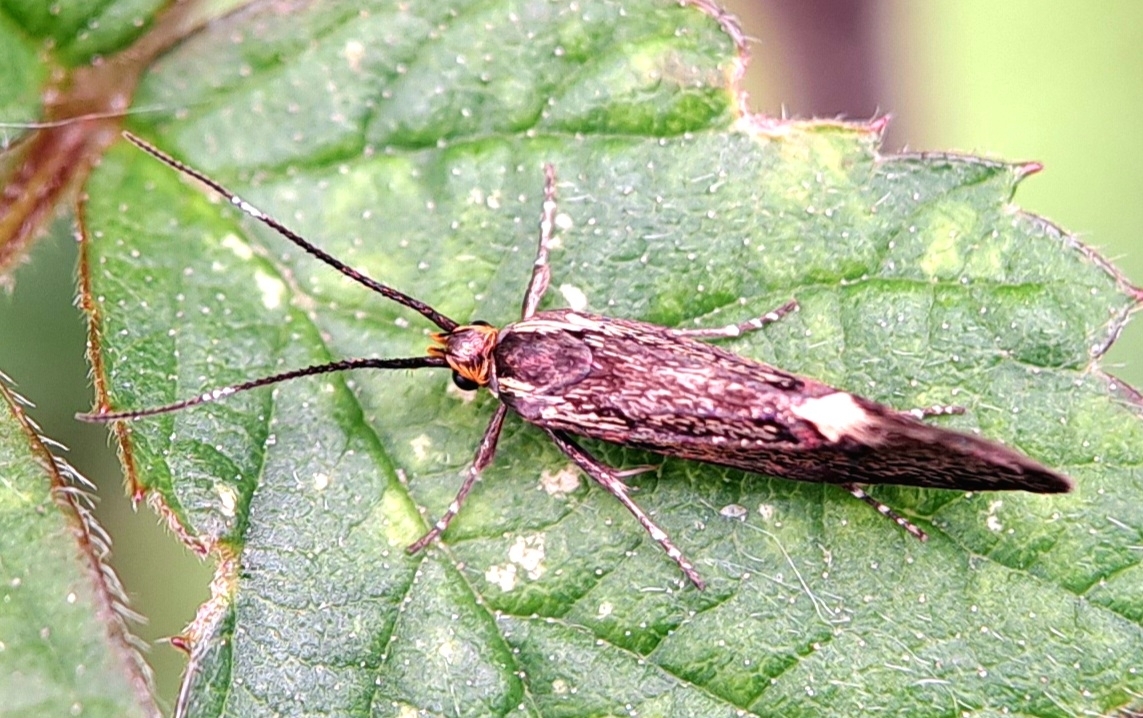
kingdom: Animalia
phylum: Arthropoda
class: Insecta
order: Lepidoptera
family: Oecophoridae
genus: Dafa
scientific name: Dafa Esperia sulphurella
